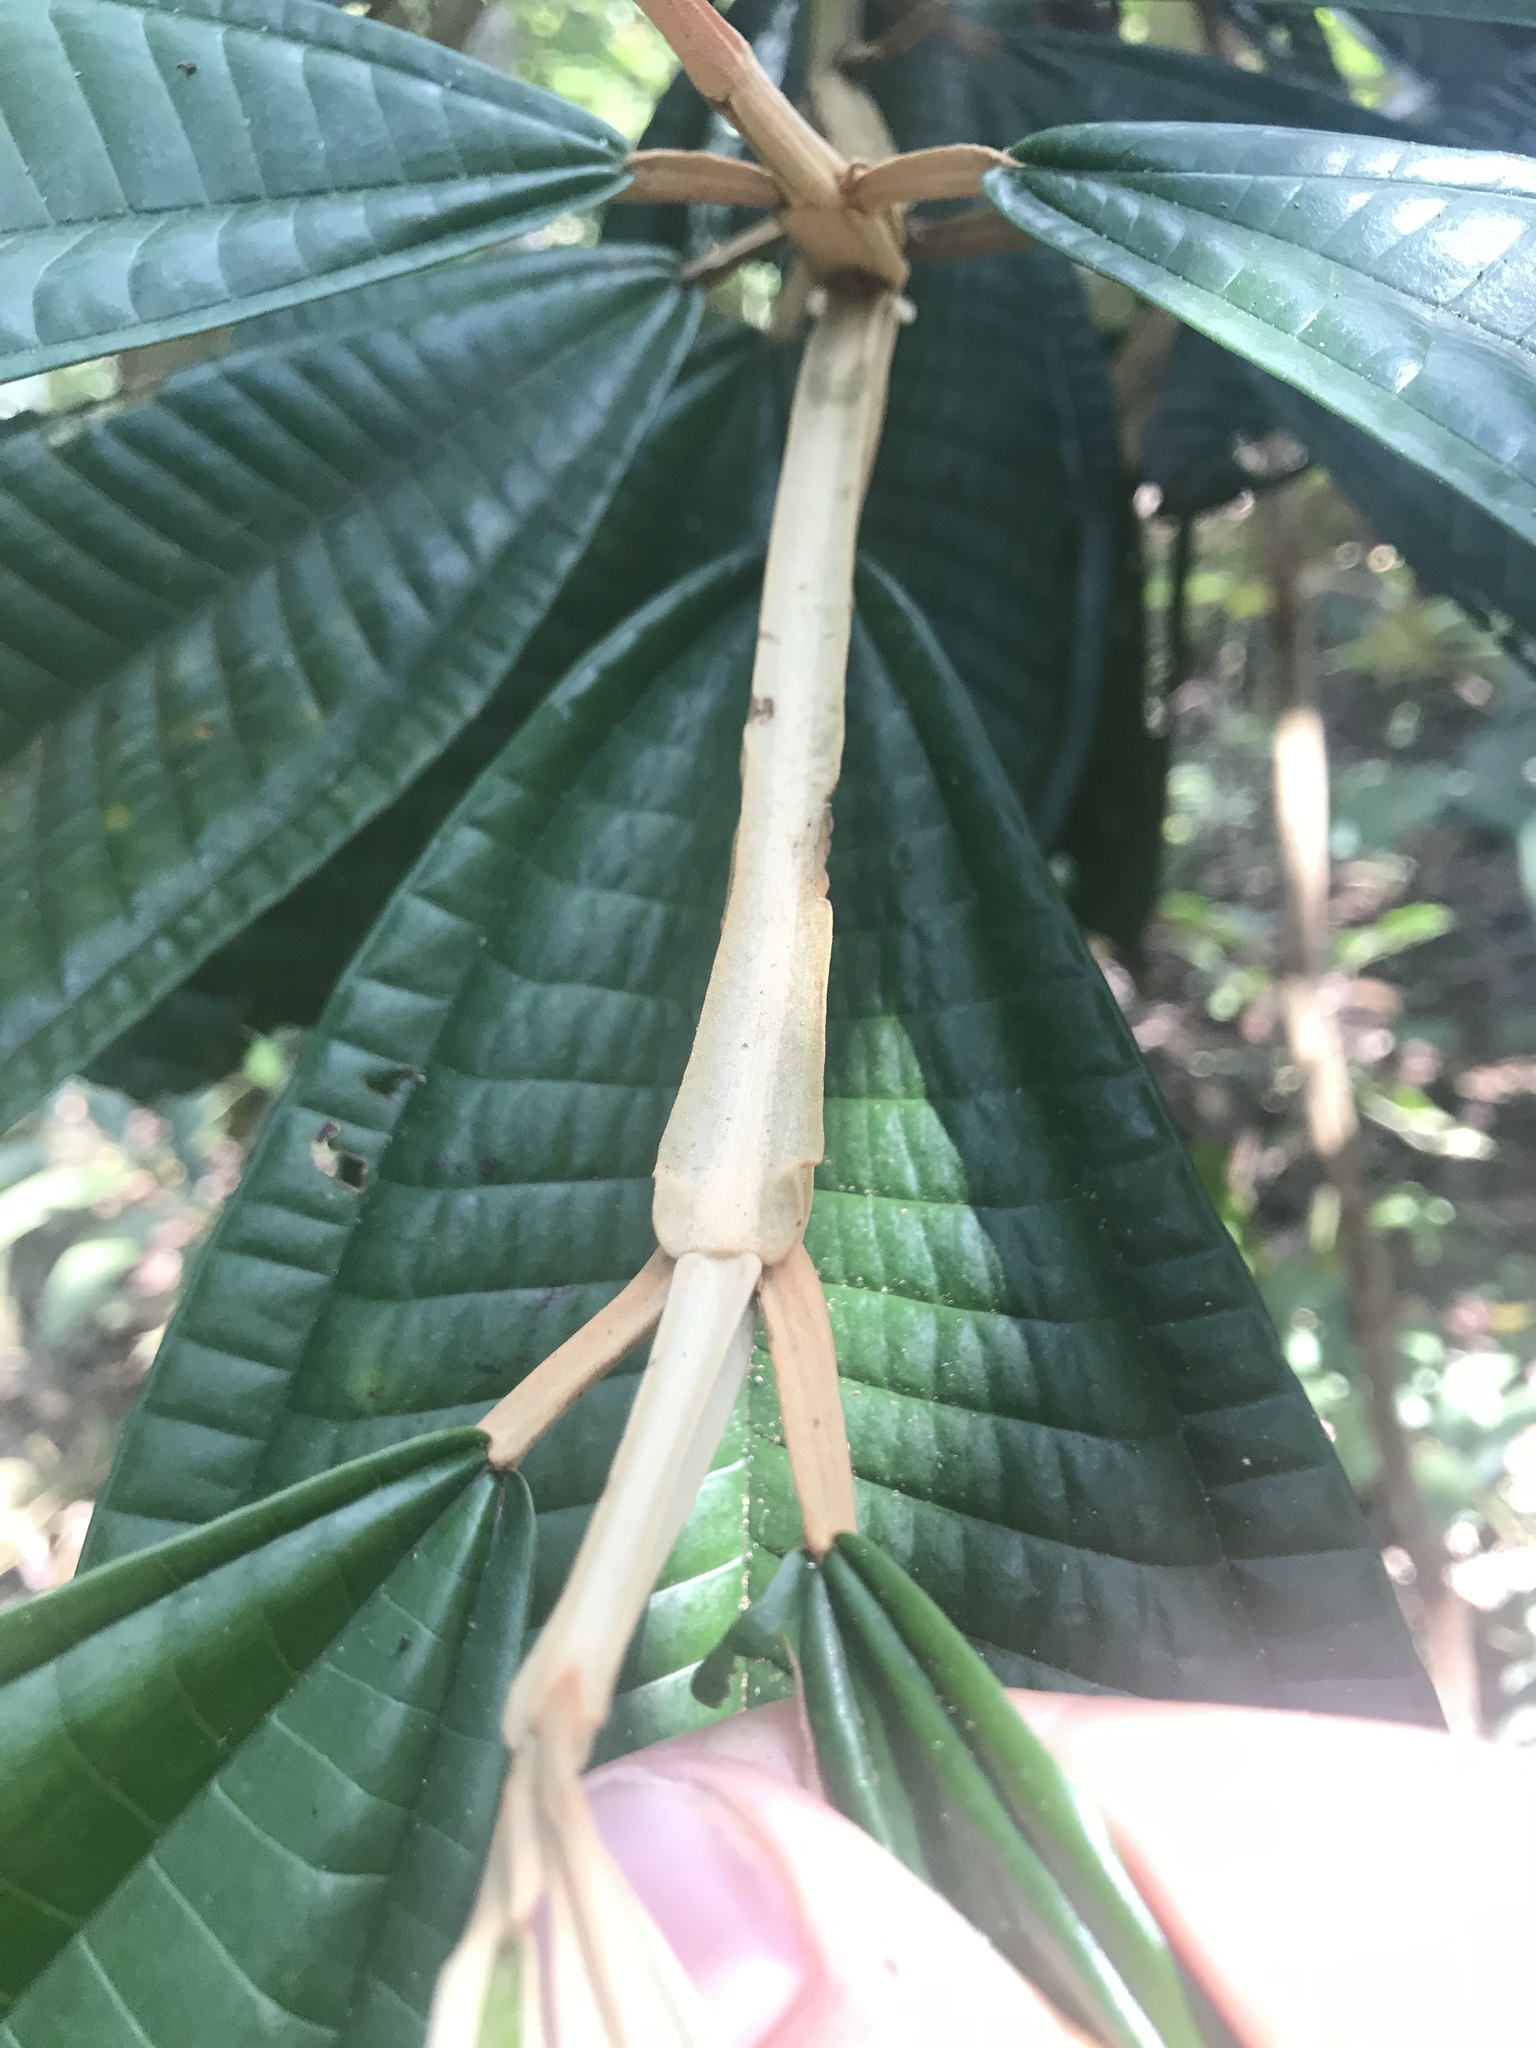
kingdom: Plantae
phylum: Tracheophyta
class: Magnoliopsida
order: Myrtales
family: Melastomataceae
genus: Miconia
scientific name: Miconia pterocaulon
